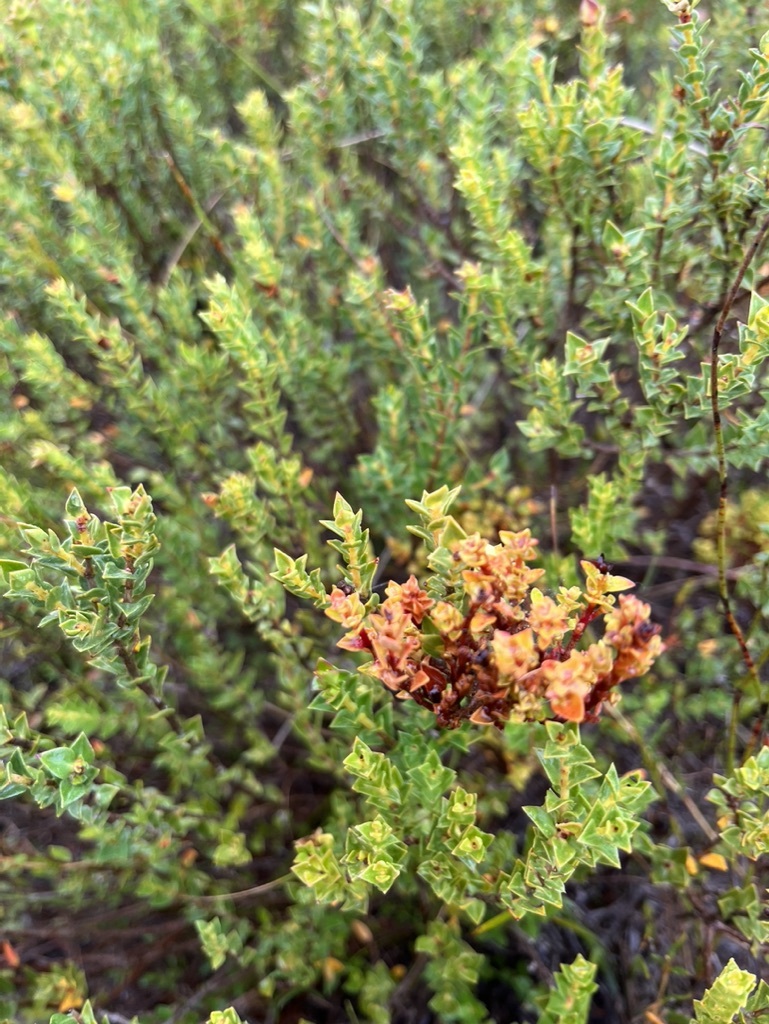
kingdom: Plantae
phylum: Tracheophyta
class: Magnoliopsida
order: Myrtales
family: Penaeaceae
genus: Penaea
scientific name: Penaea mucronata
